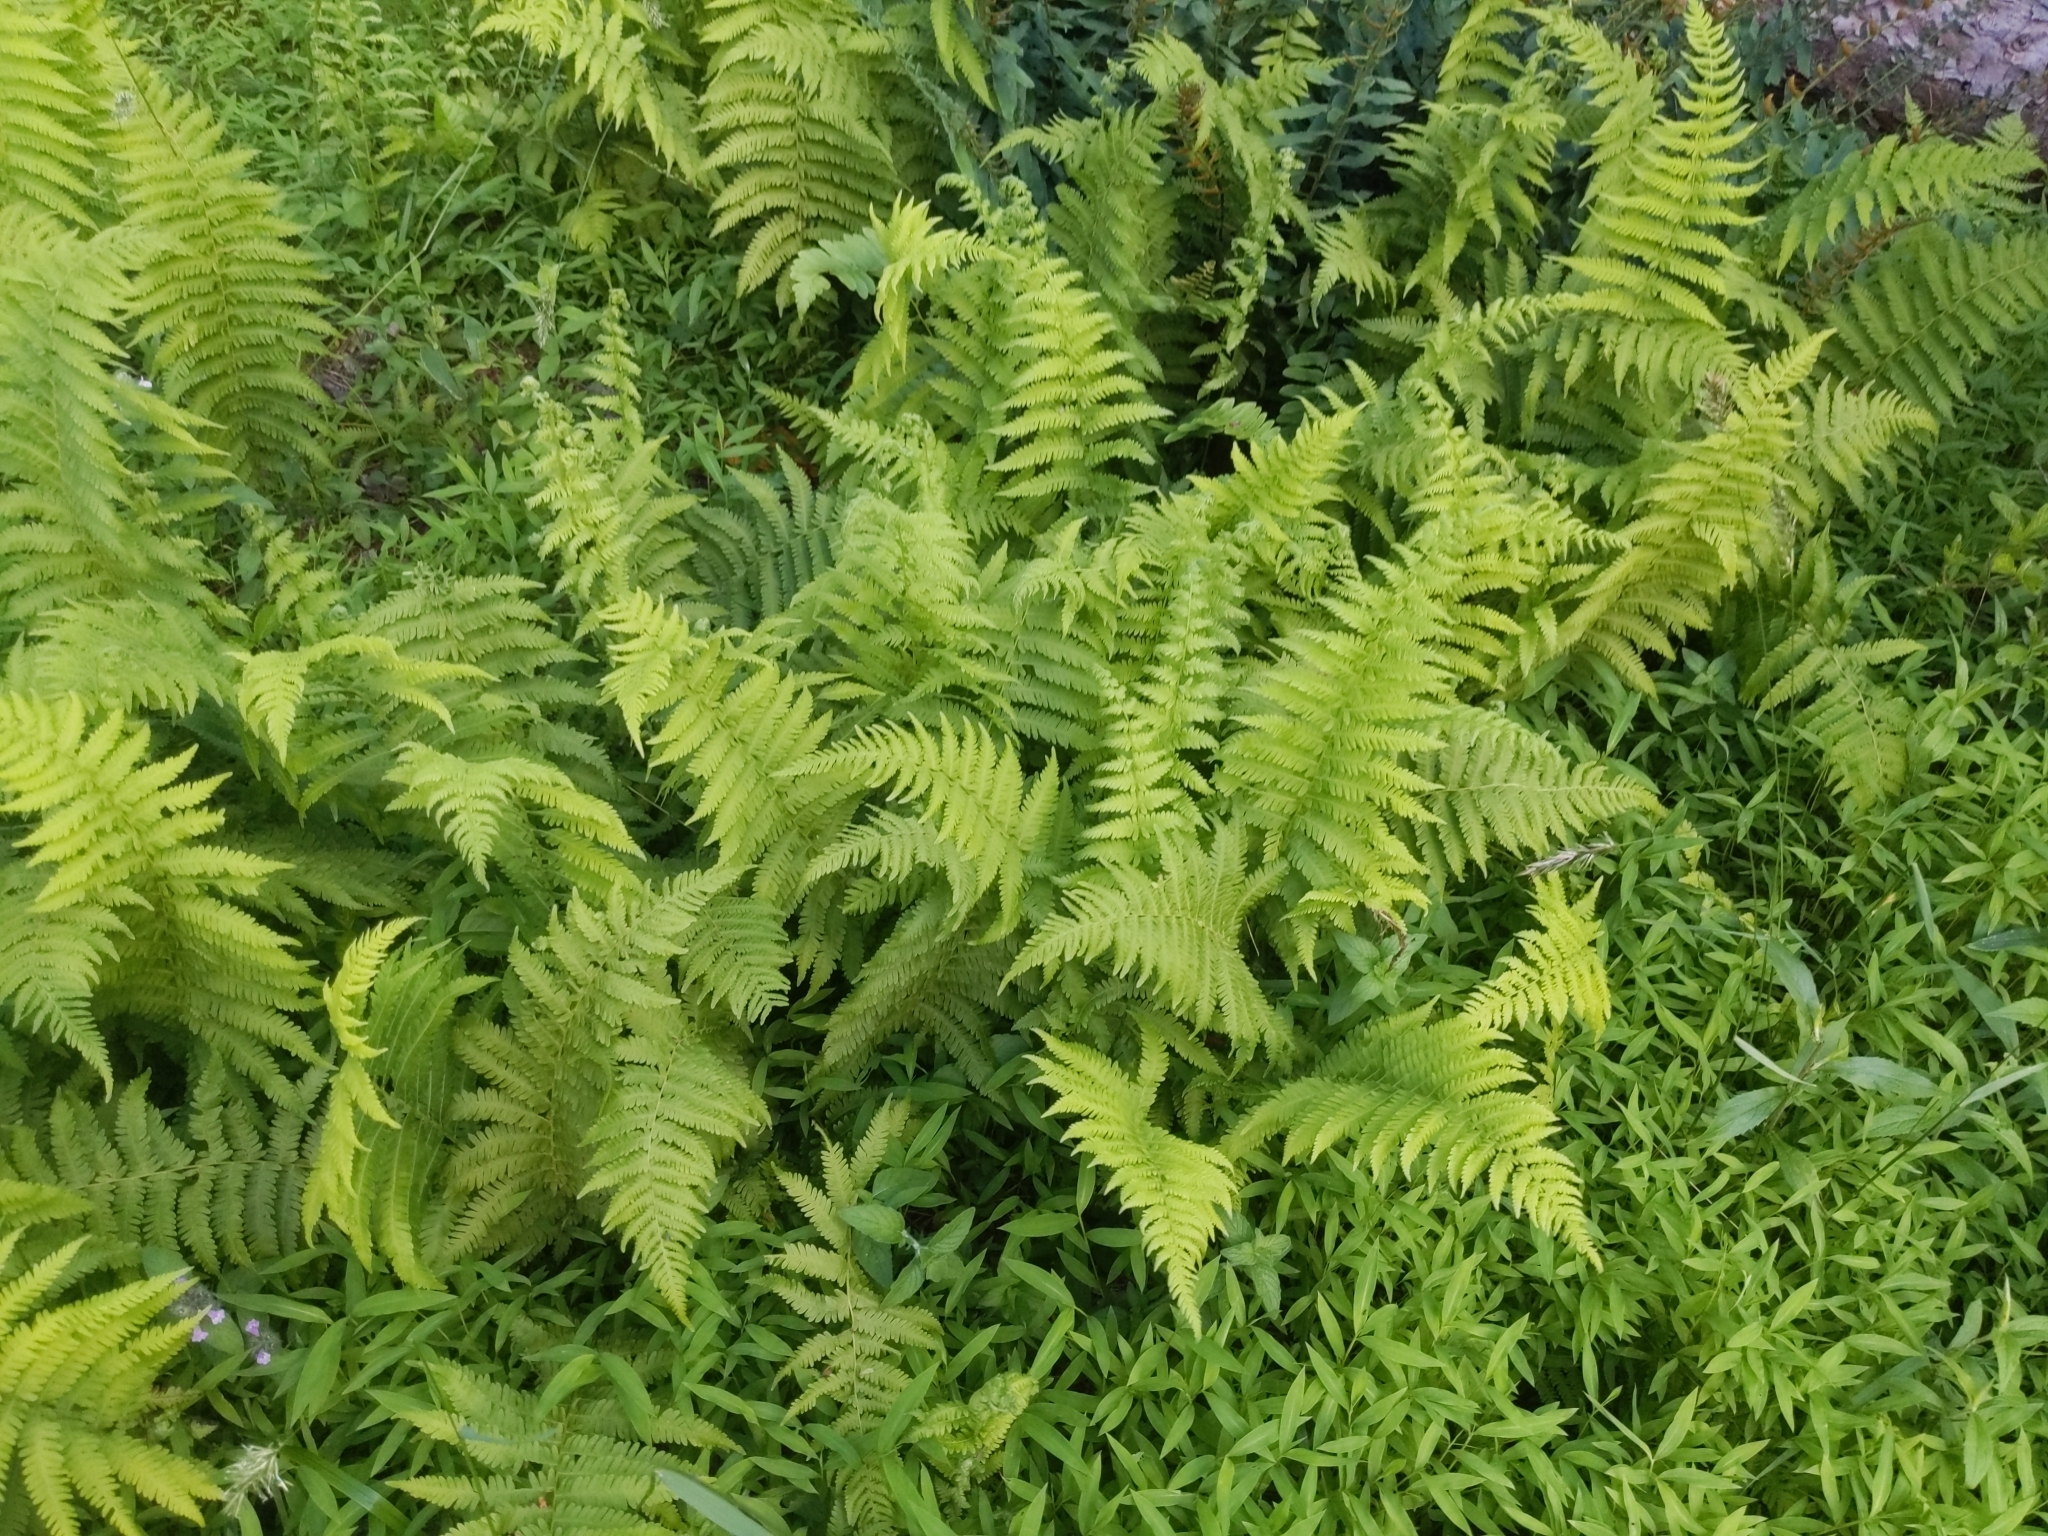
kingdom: Plantae
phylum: Tracheophyta
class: Polypodiopsida
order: Polypodiales
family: Thelypteridaceae
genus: Amauropelta
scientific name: Amauropelta noveboracensis
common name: New york fern
